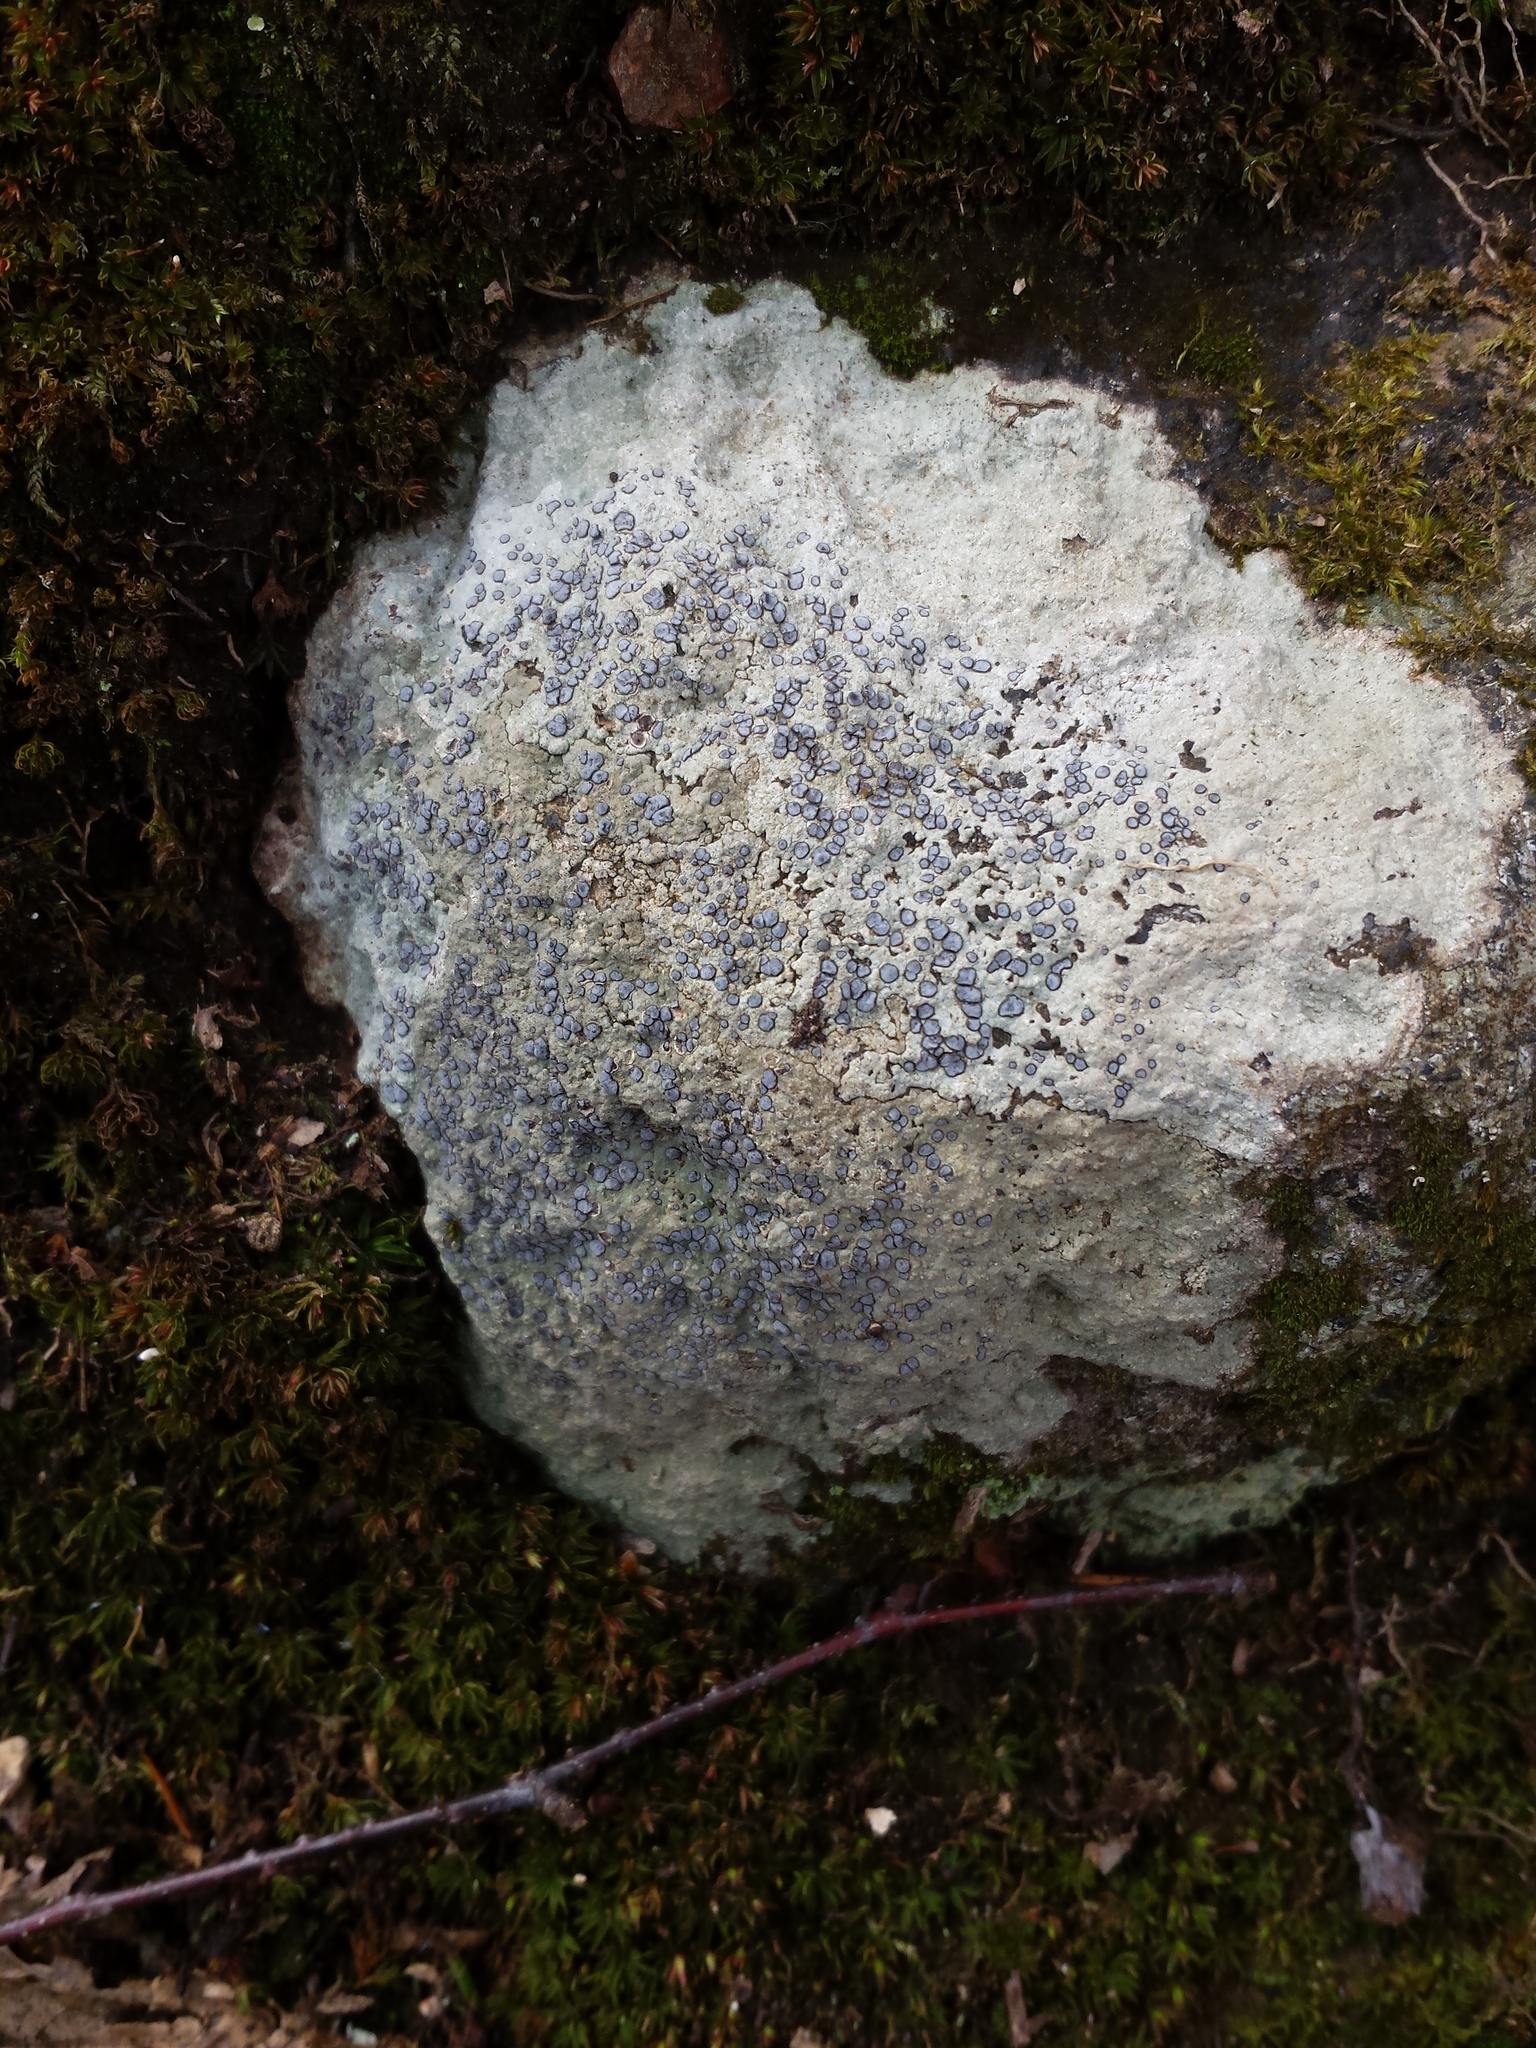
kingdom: Fungi
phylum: Ascomycota
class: Lecanoromycetes
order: Lecideales
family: Lecideaceae
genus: Porpidia
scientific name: Porpidia albocaerulescens
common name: Smokey-eyed boulder lichen
